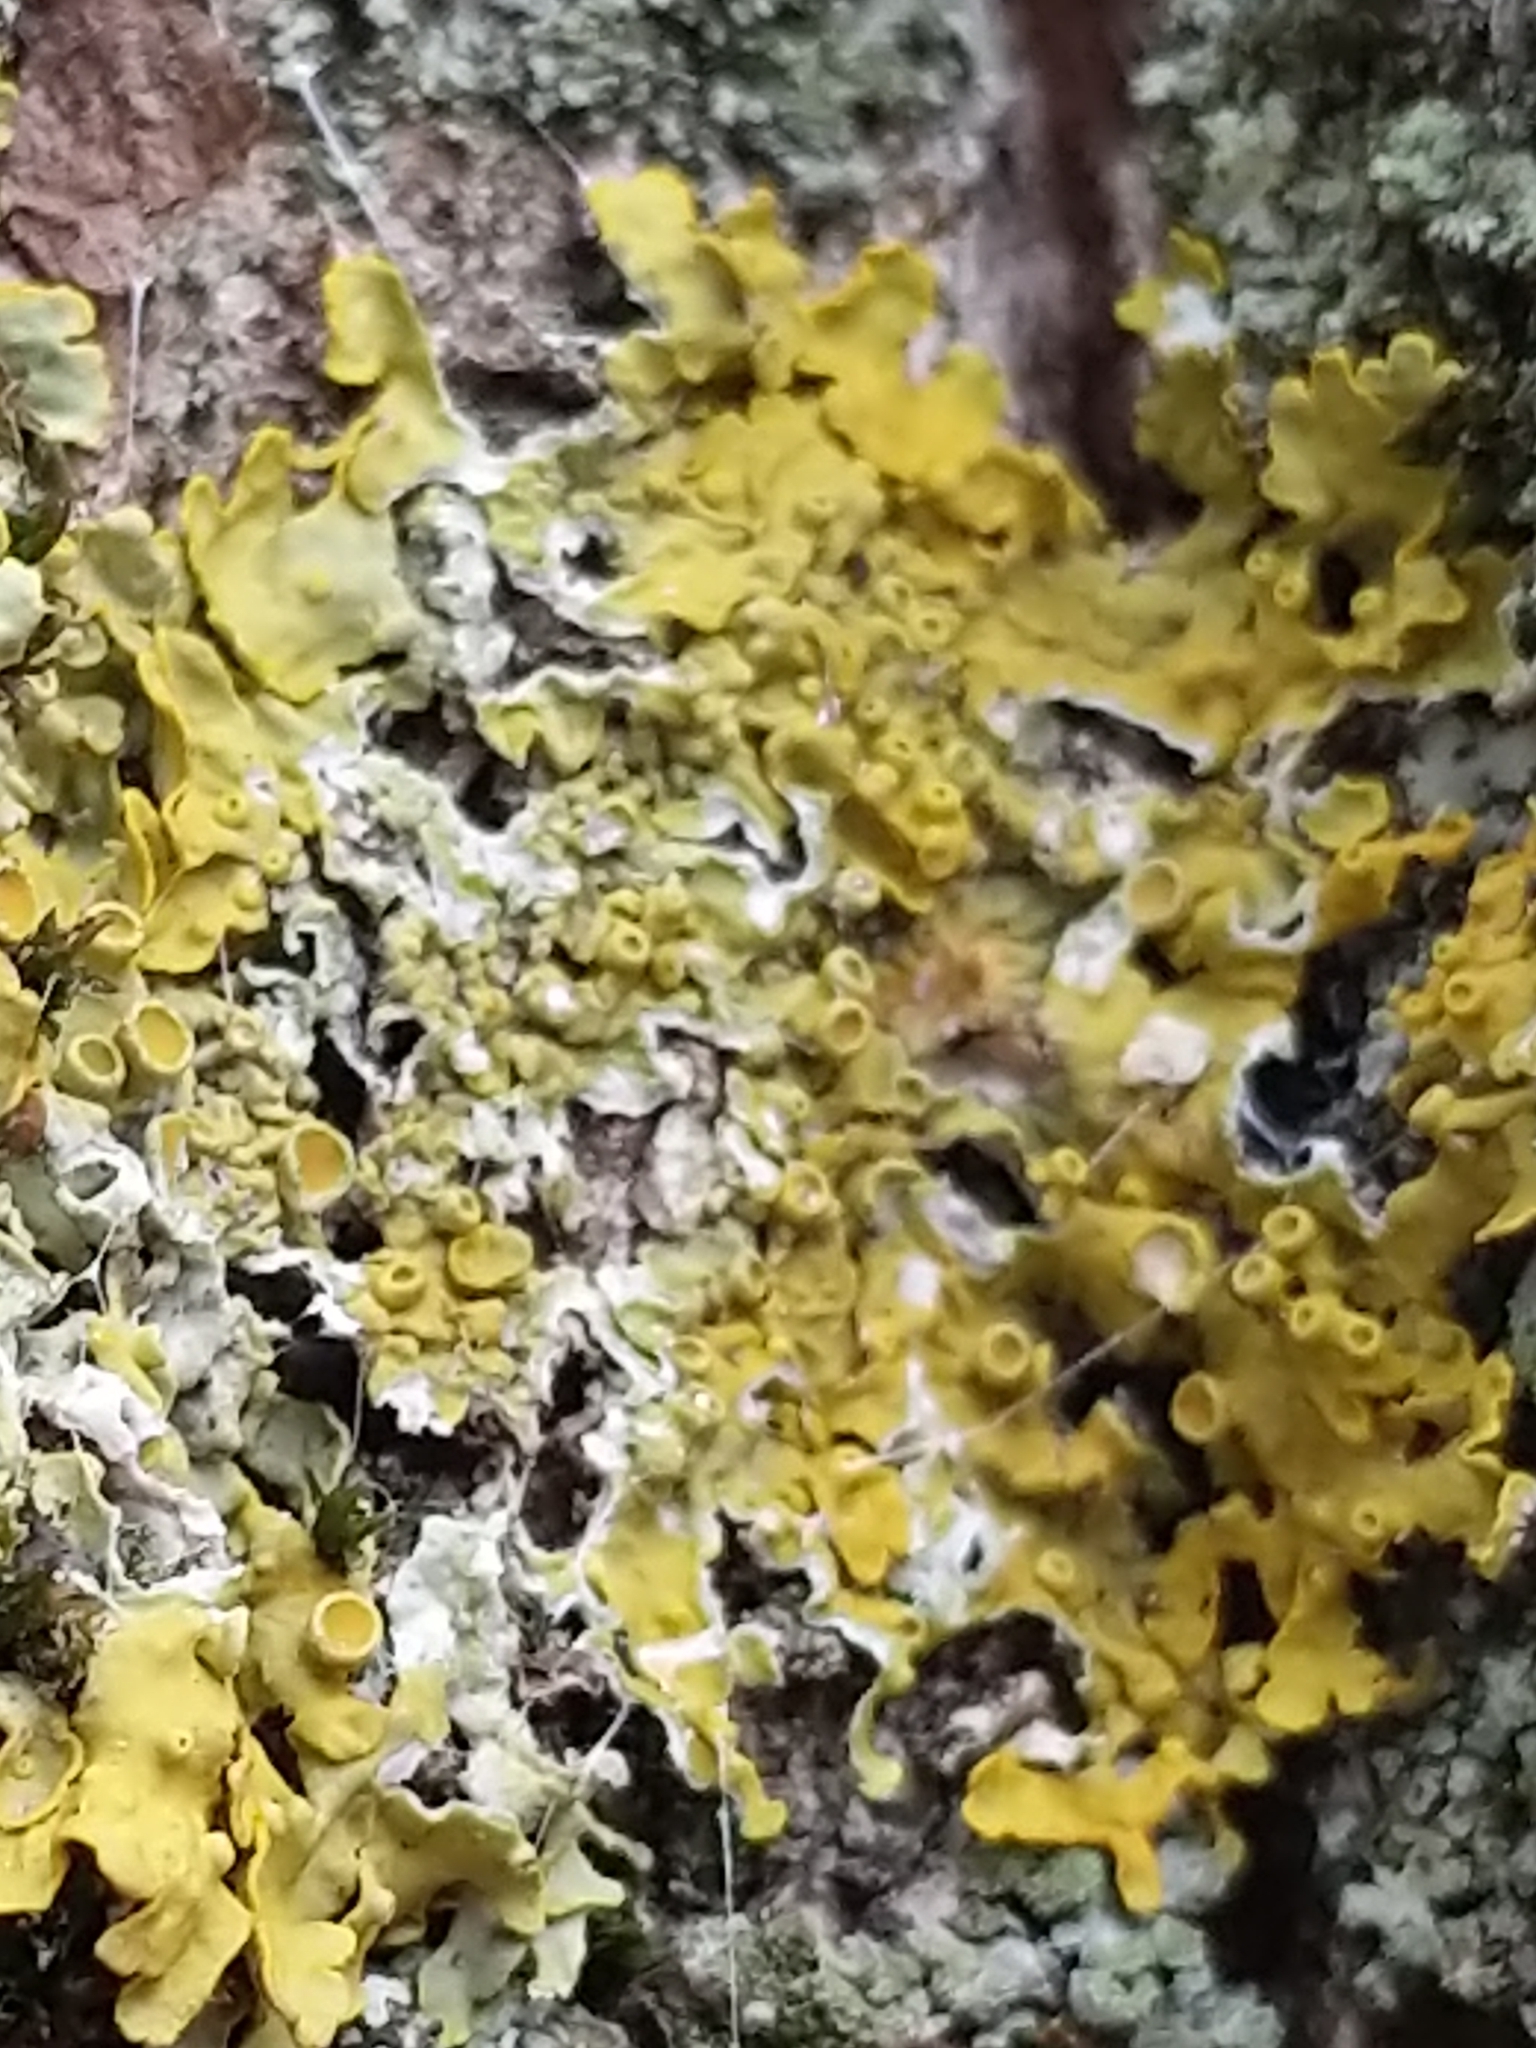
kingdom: Fungi
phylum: Ascomycota
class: Lecanoromycetes
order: Teloschistales
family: Teloschistaceae
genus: Xanthoria
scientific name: Xanthoria parietina
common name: Common orange lichen
